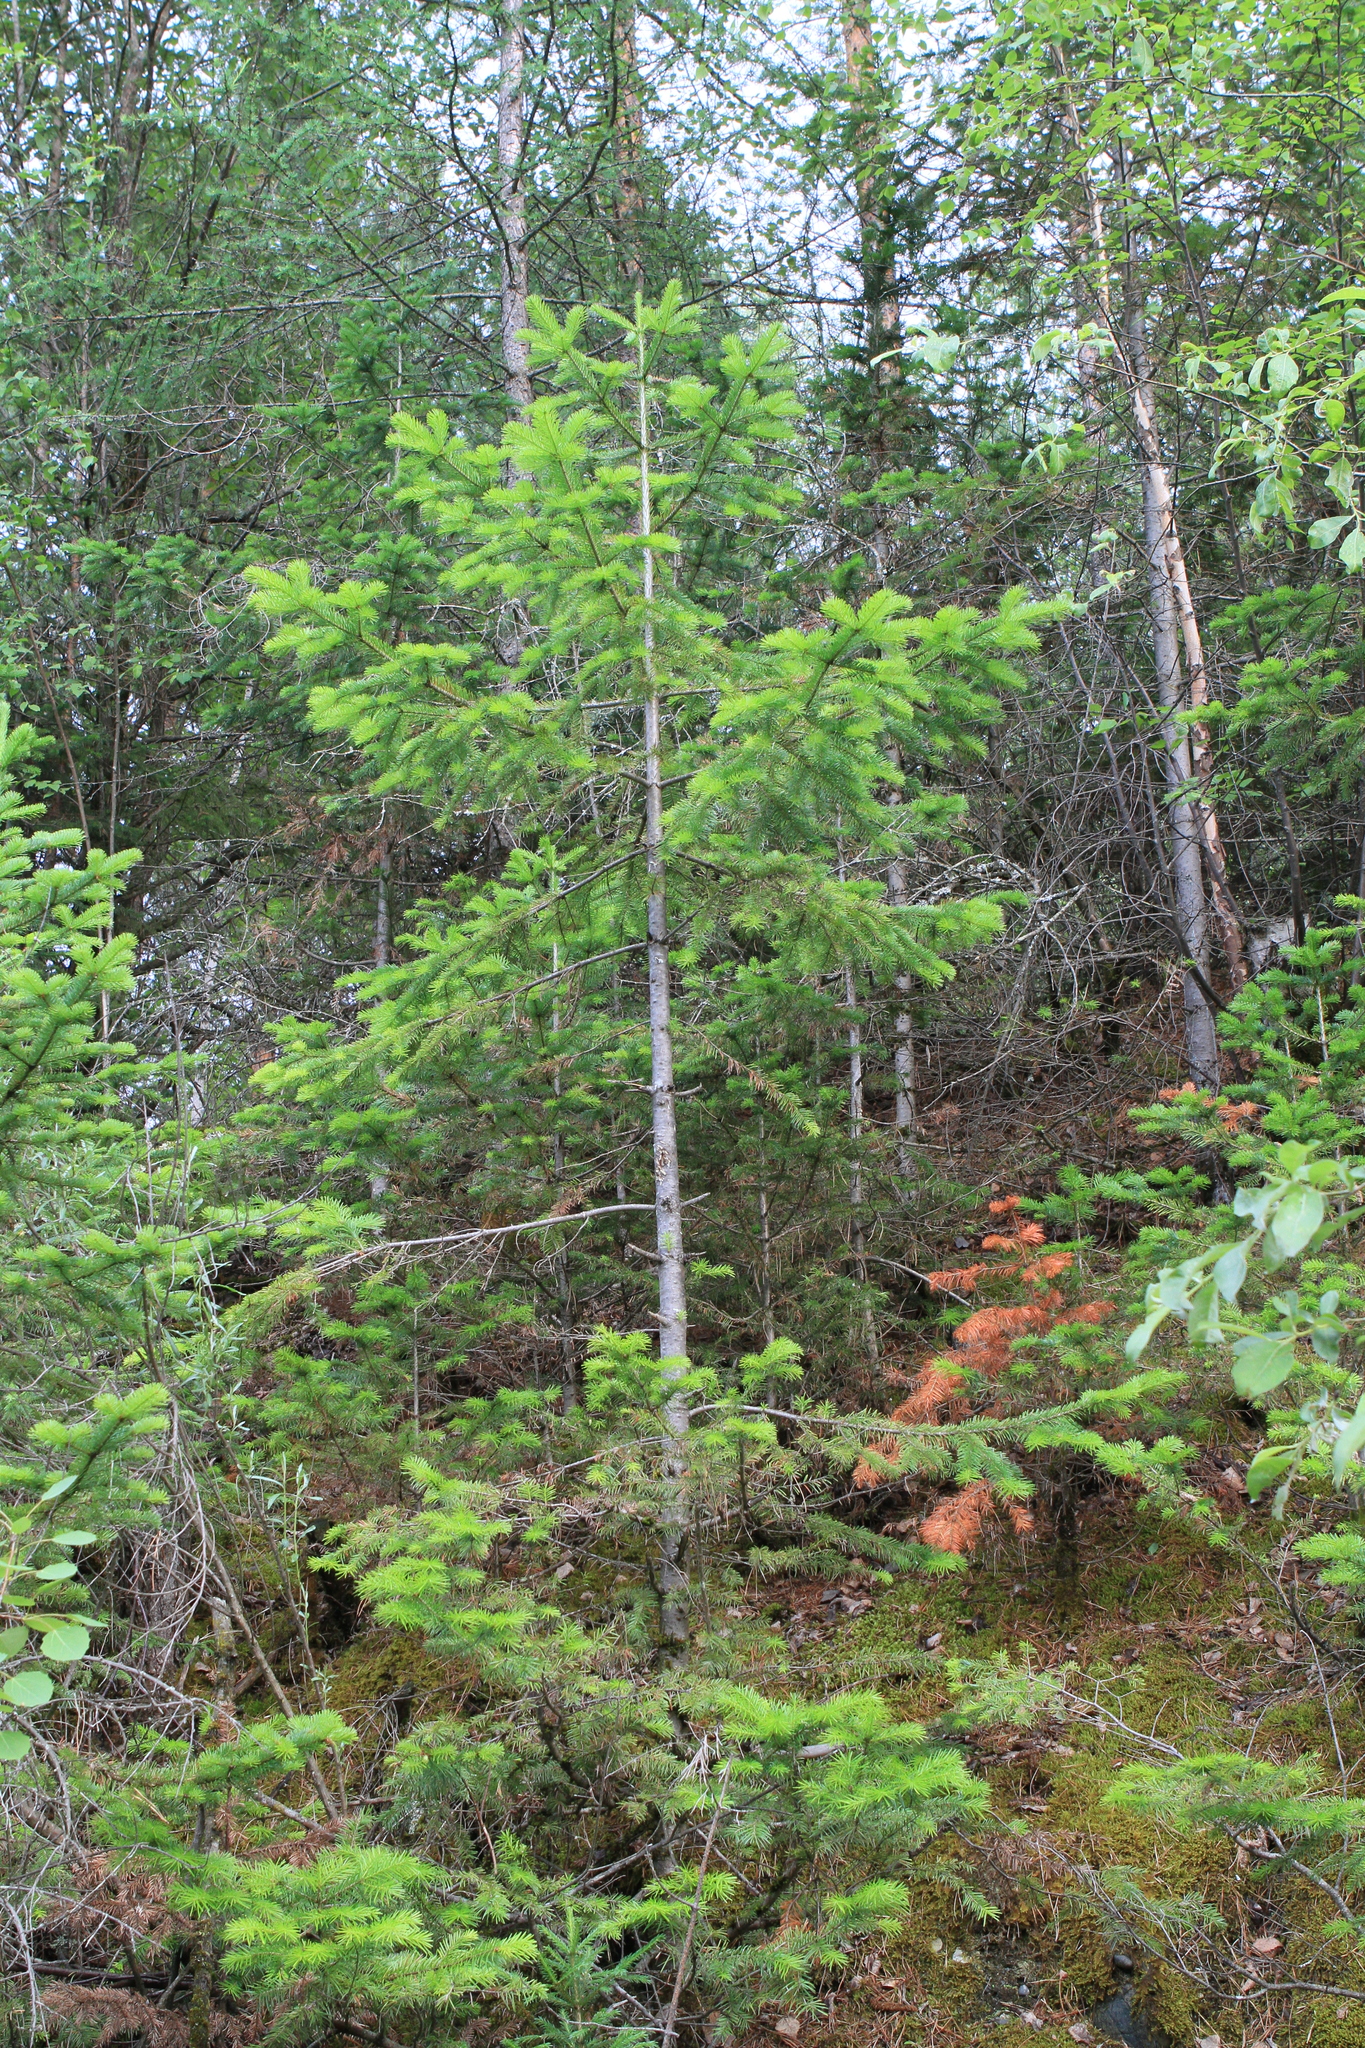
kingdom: Plantae
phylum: Tracheophyta
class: Pinopsida
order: Pinales
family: Pinaceae
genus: Abies
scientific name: Abies sibirica
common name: Siberian fir
